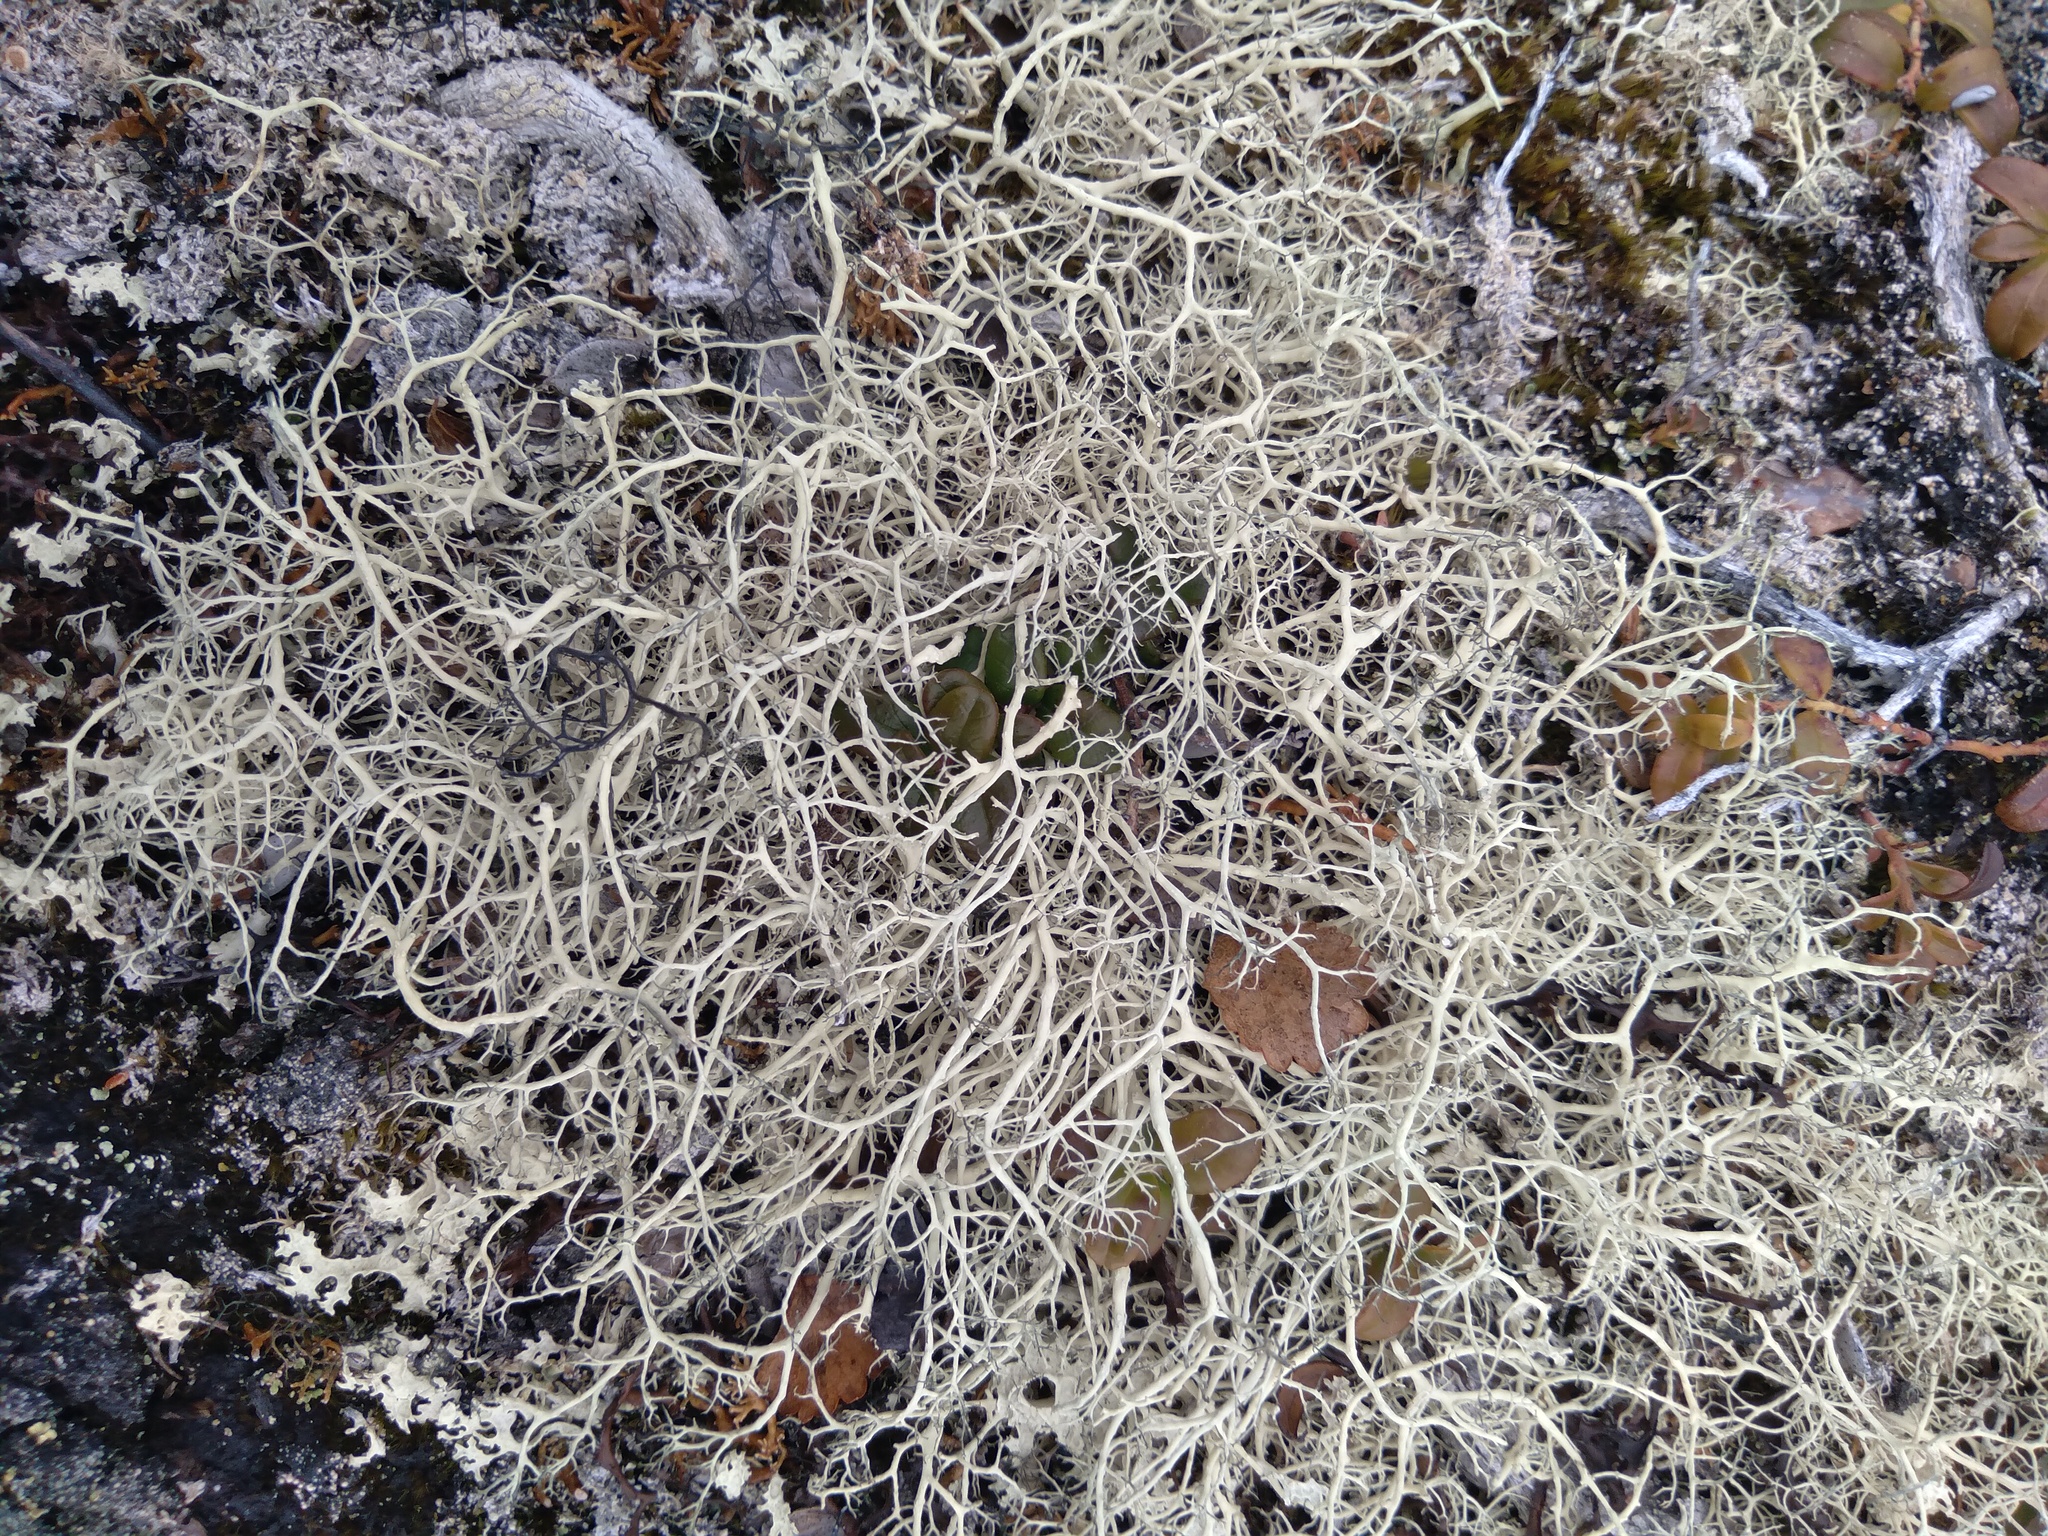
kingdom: Fungi
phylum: Ascomycota
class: Lecanoromycetes
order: Lecanorales
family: Parmeliaceae
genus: Alectoria
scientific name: Alectoria ochroleuca
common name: Alpine sulphur-tresses
